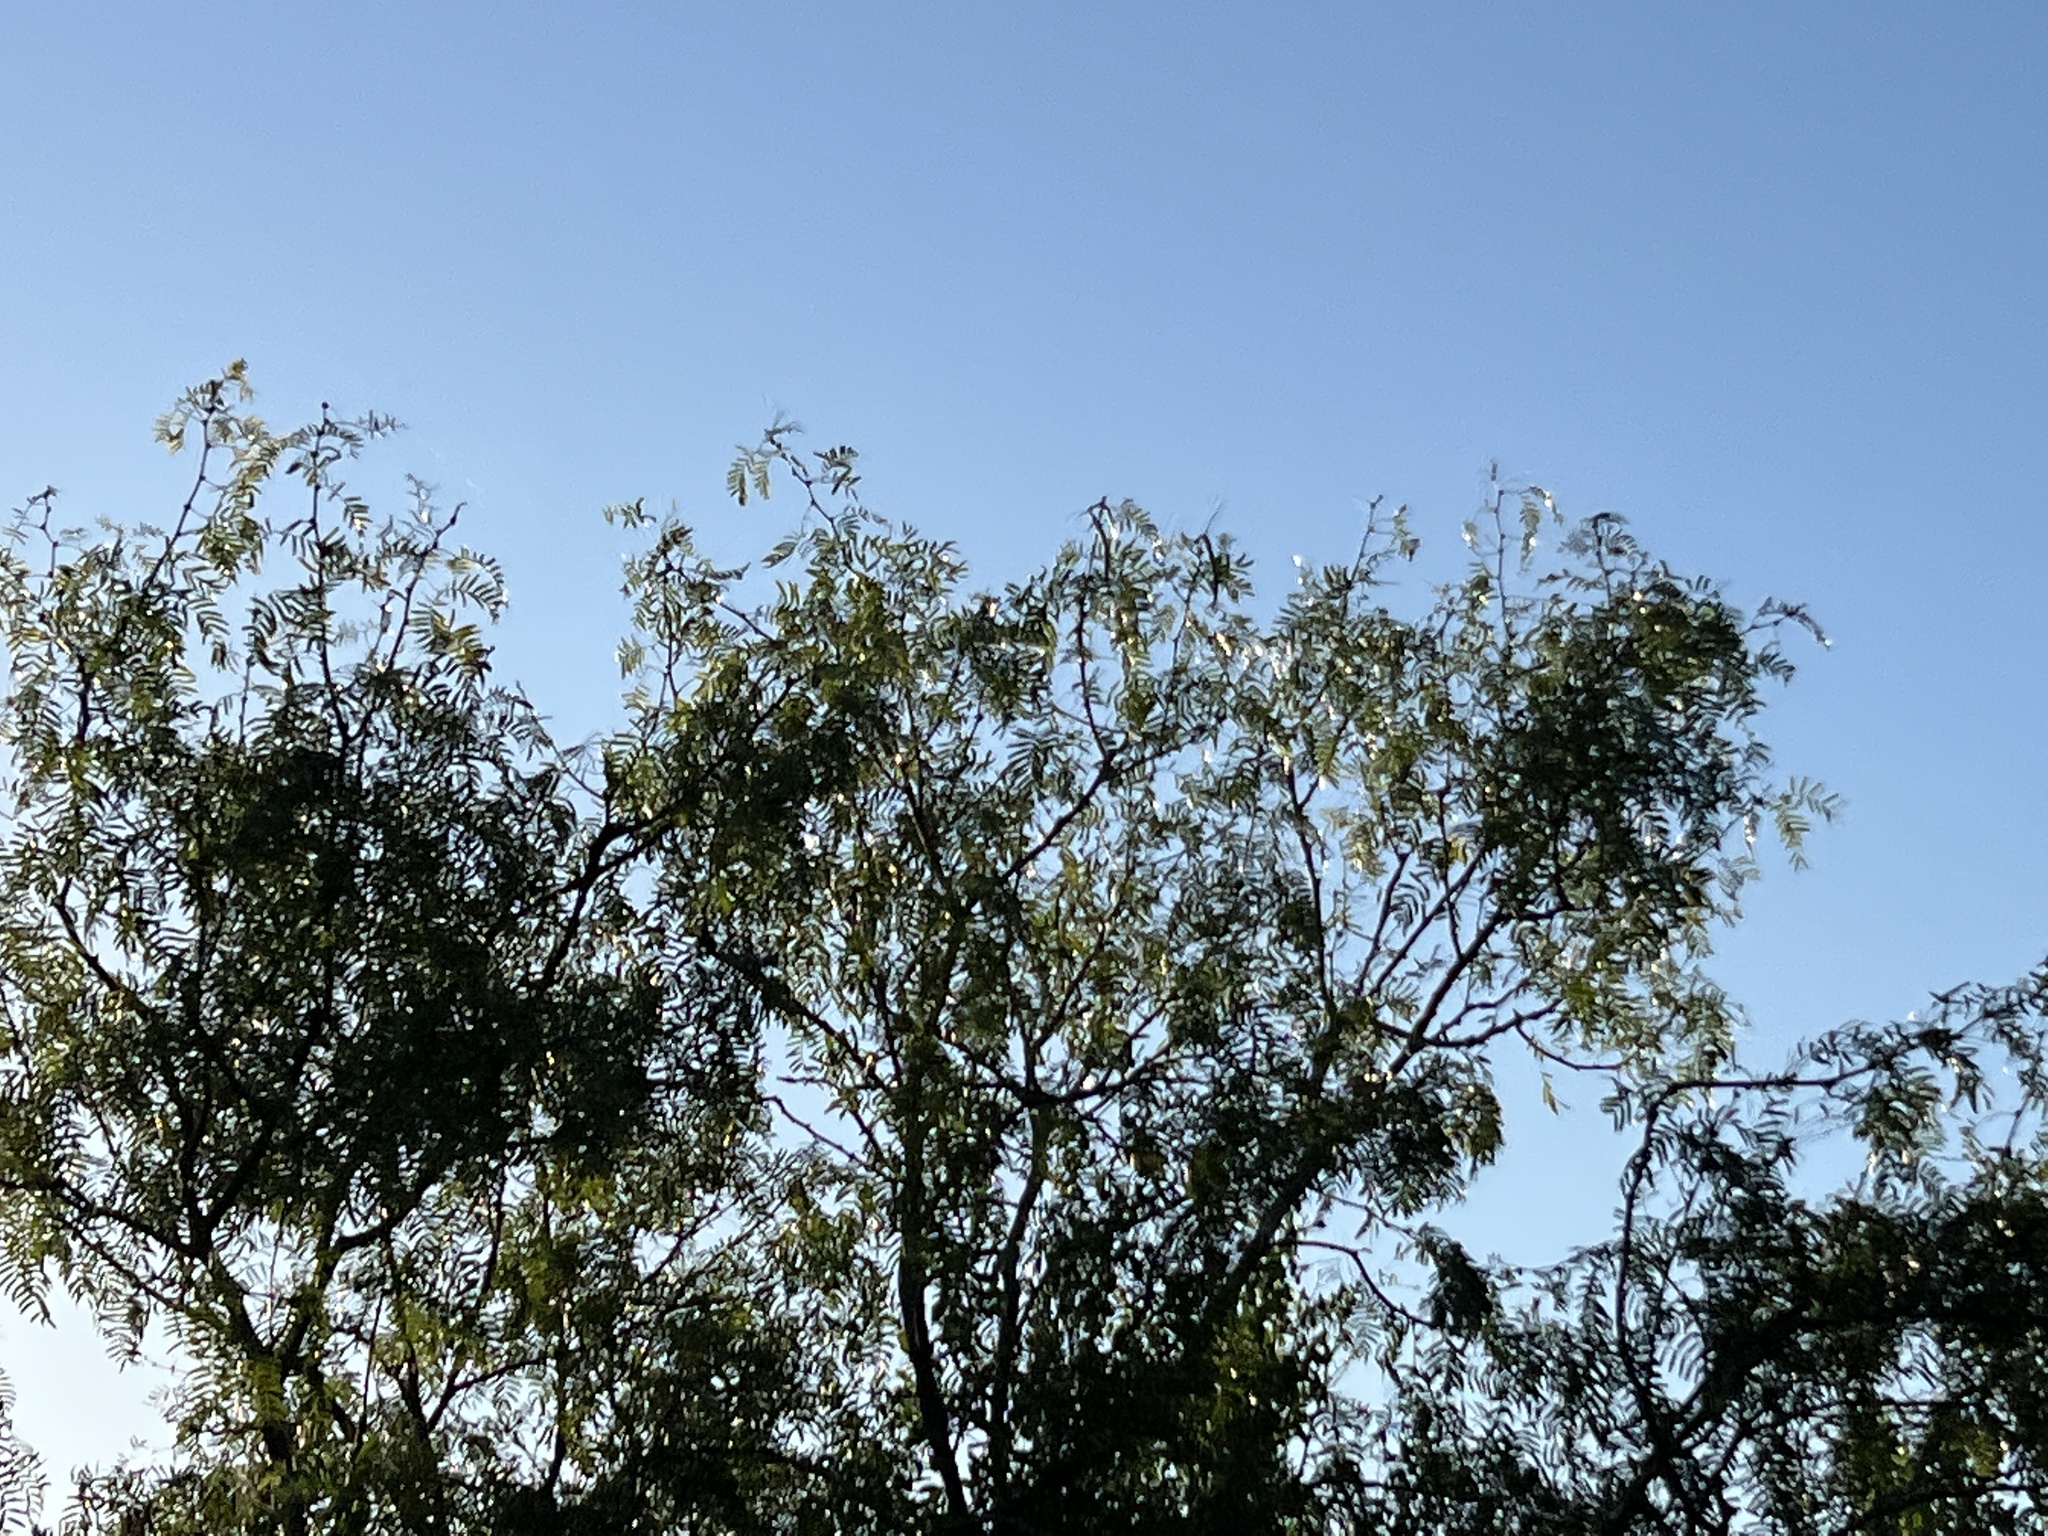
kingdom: Plantae
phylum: Tracheophyta
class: Magnoliopsida
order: Fabales
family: Fabaceae
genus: Prosopis
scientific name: Prosopis glandulosa
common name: Honey mesquite
